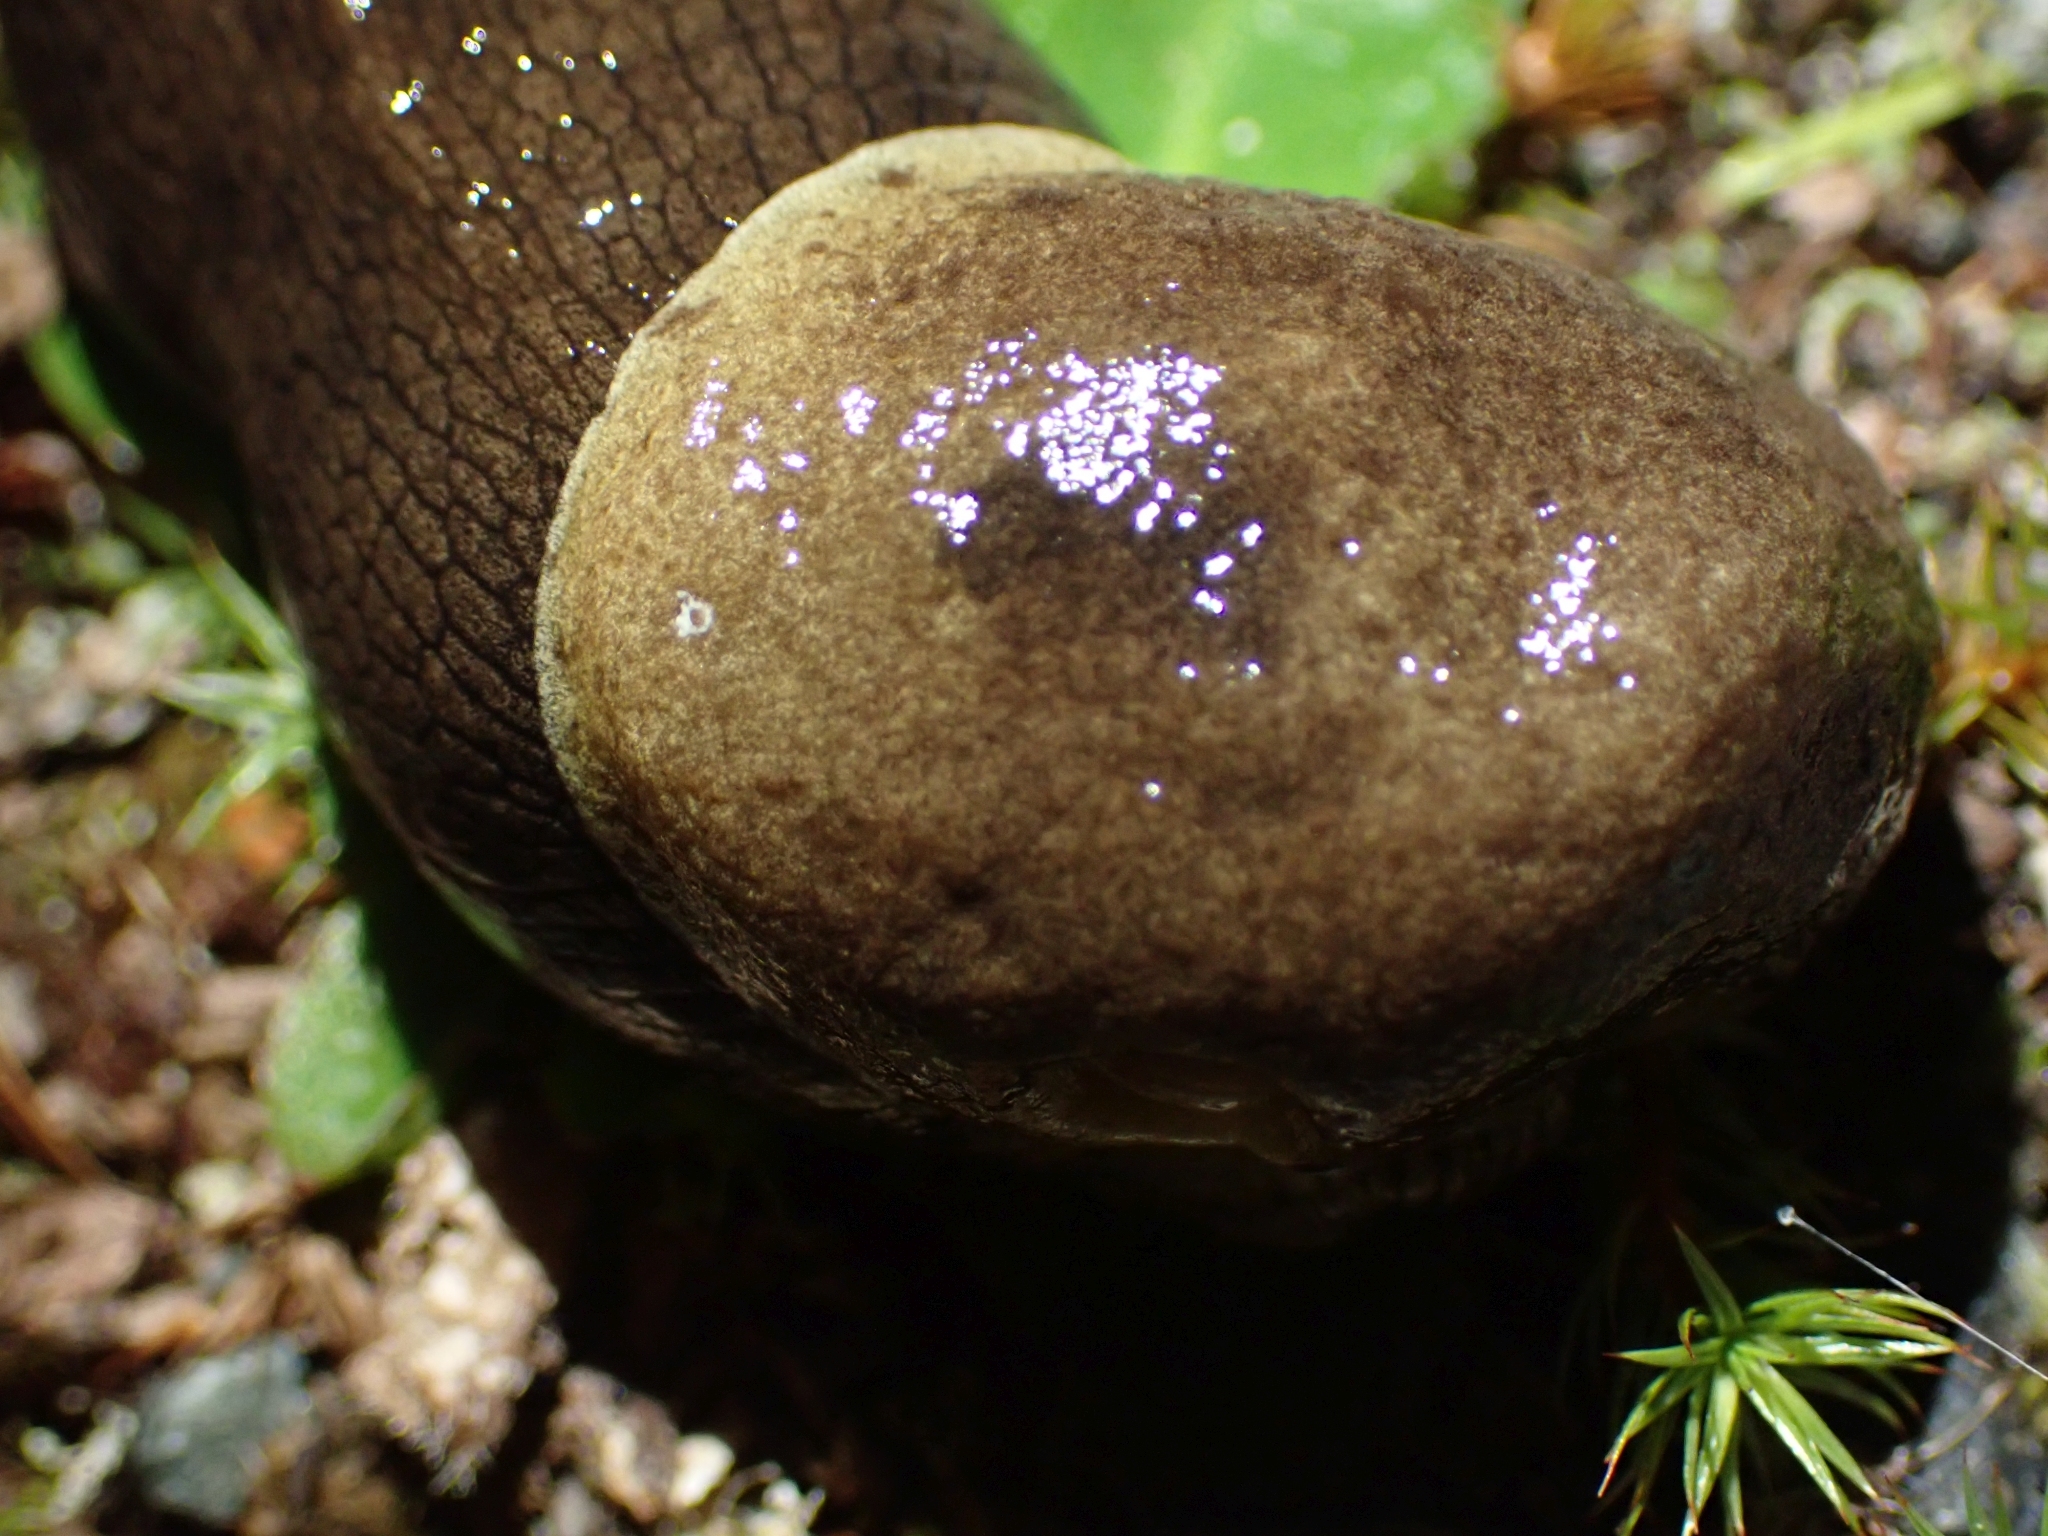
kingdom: Animalia
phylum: Mollusca
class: Gastropoda
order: Stylommatophora
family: Ariolimacidae
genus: Ariolimax
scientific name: Ariolimax columbianus
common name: Pacific banana slug
